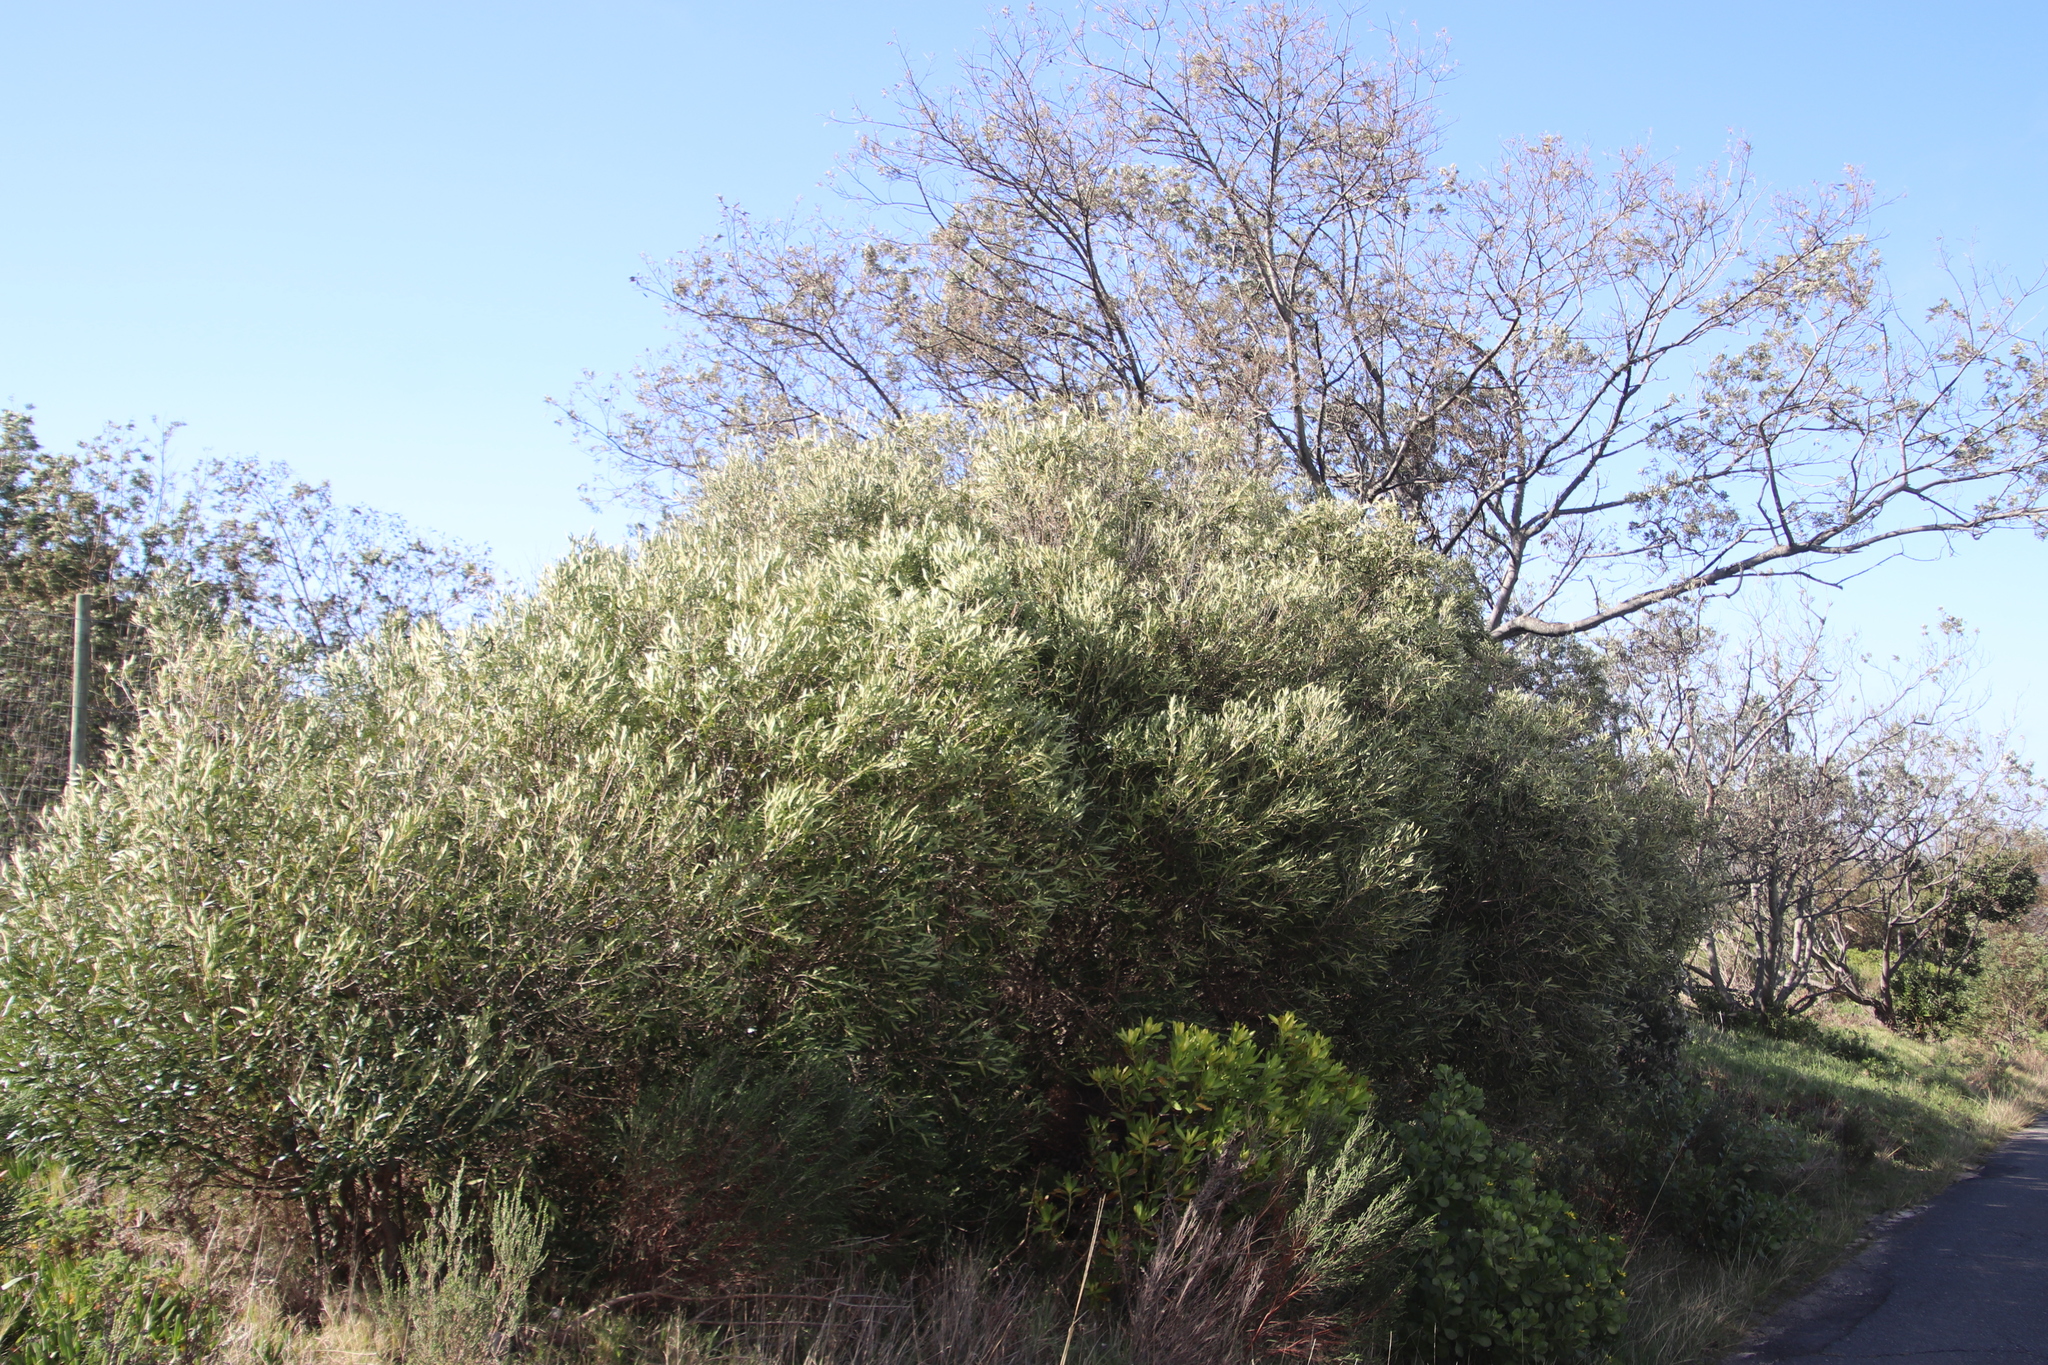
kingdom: Plantae
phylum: Tracheophyta
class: Magnoliopsida
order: Lamiales
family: Oleaceae
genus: Olea
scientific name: Olea europaea
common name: Olive
